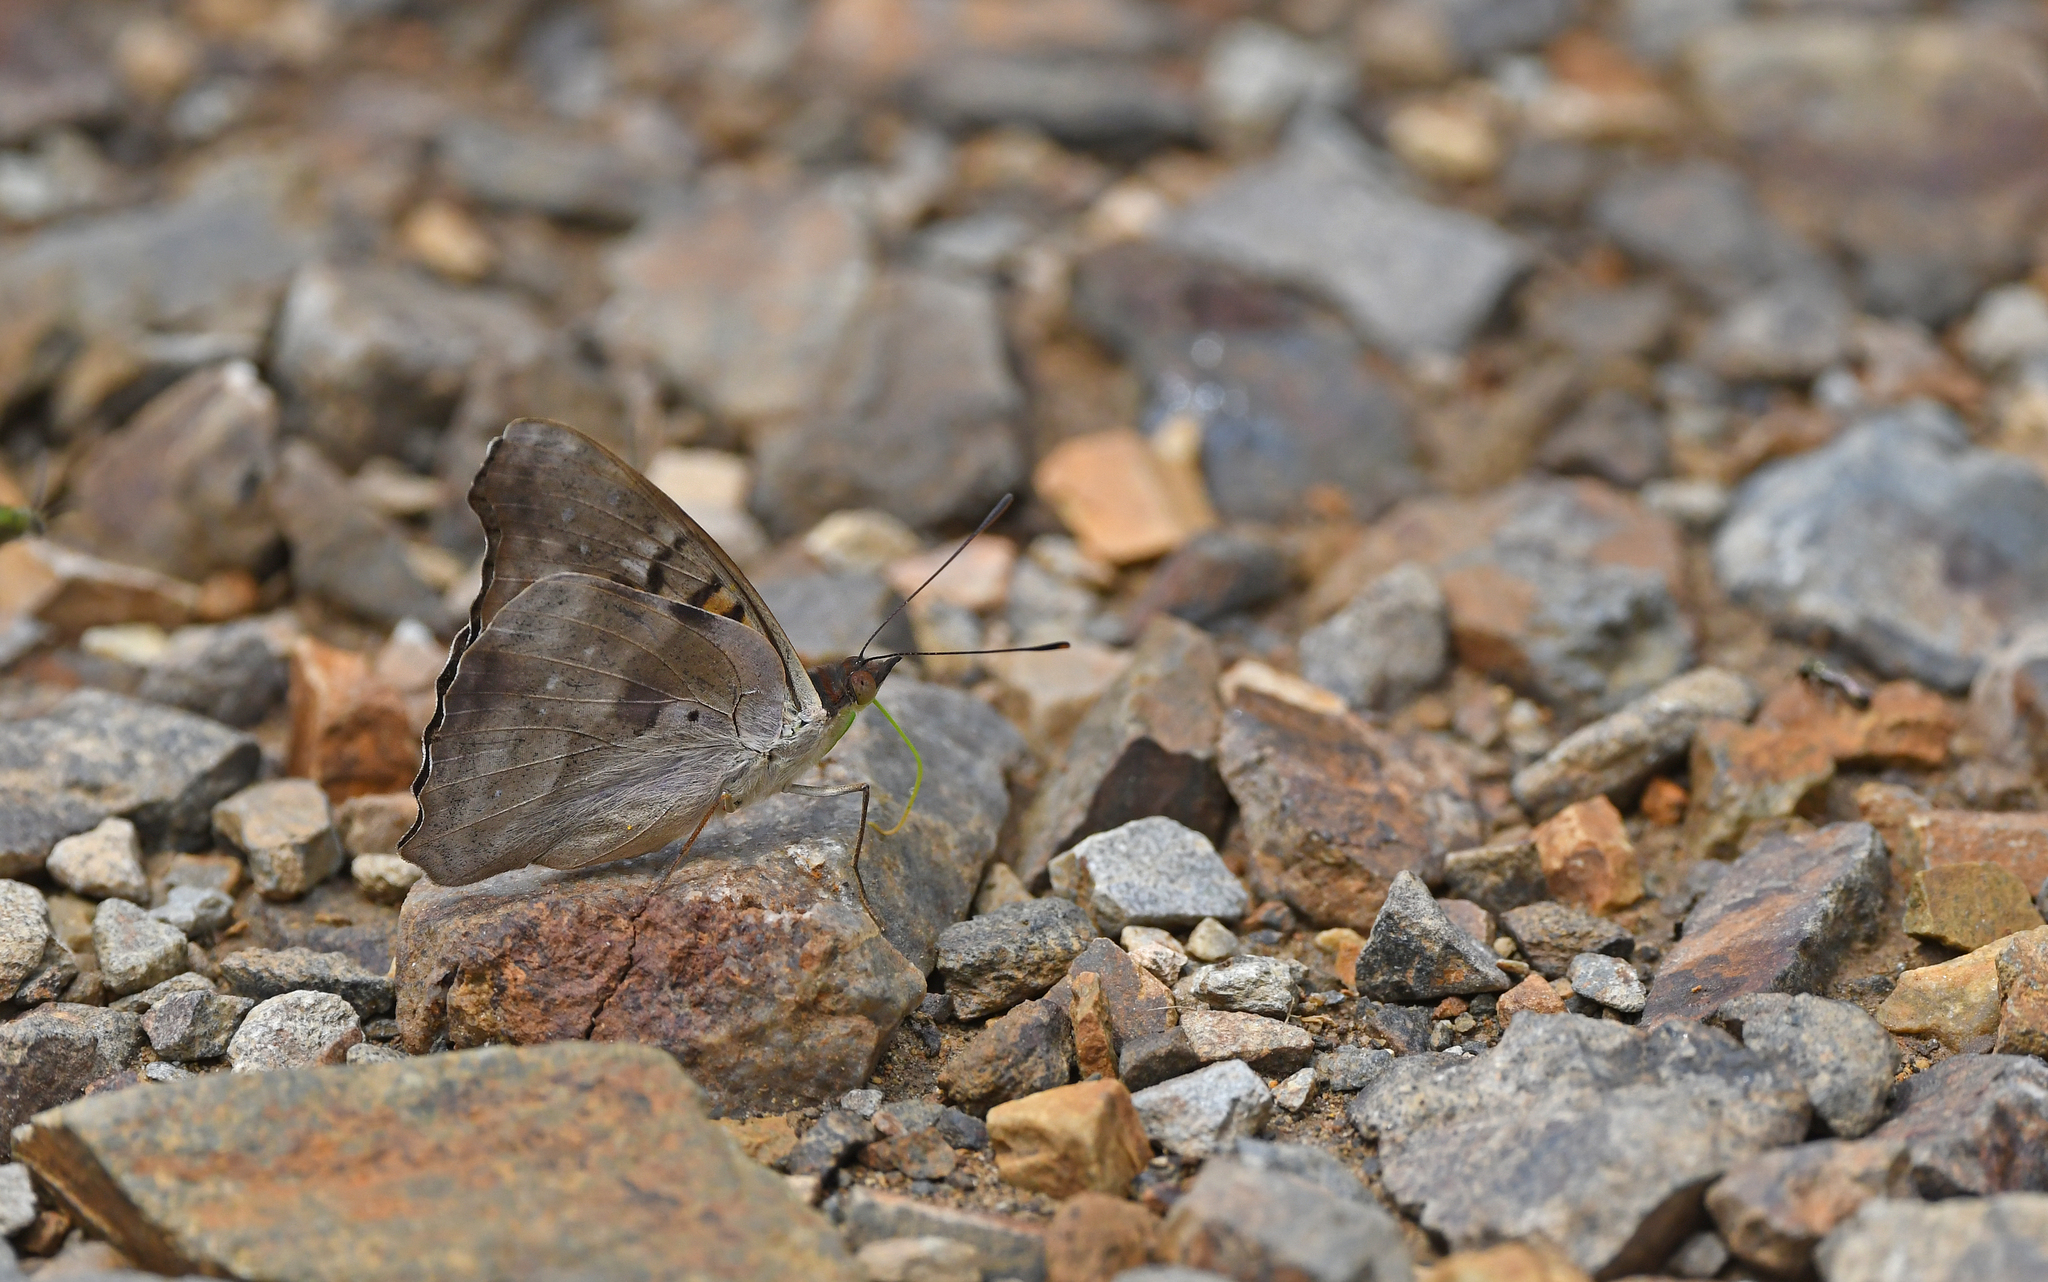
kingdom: Animalia
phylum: Arthropoda
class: Insecta
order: Lepidoptera
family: Nymphalidae
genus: Doxocopa
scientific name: Doxocopa cyane
